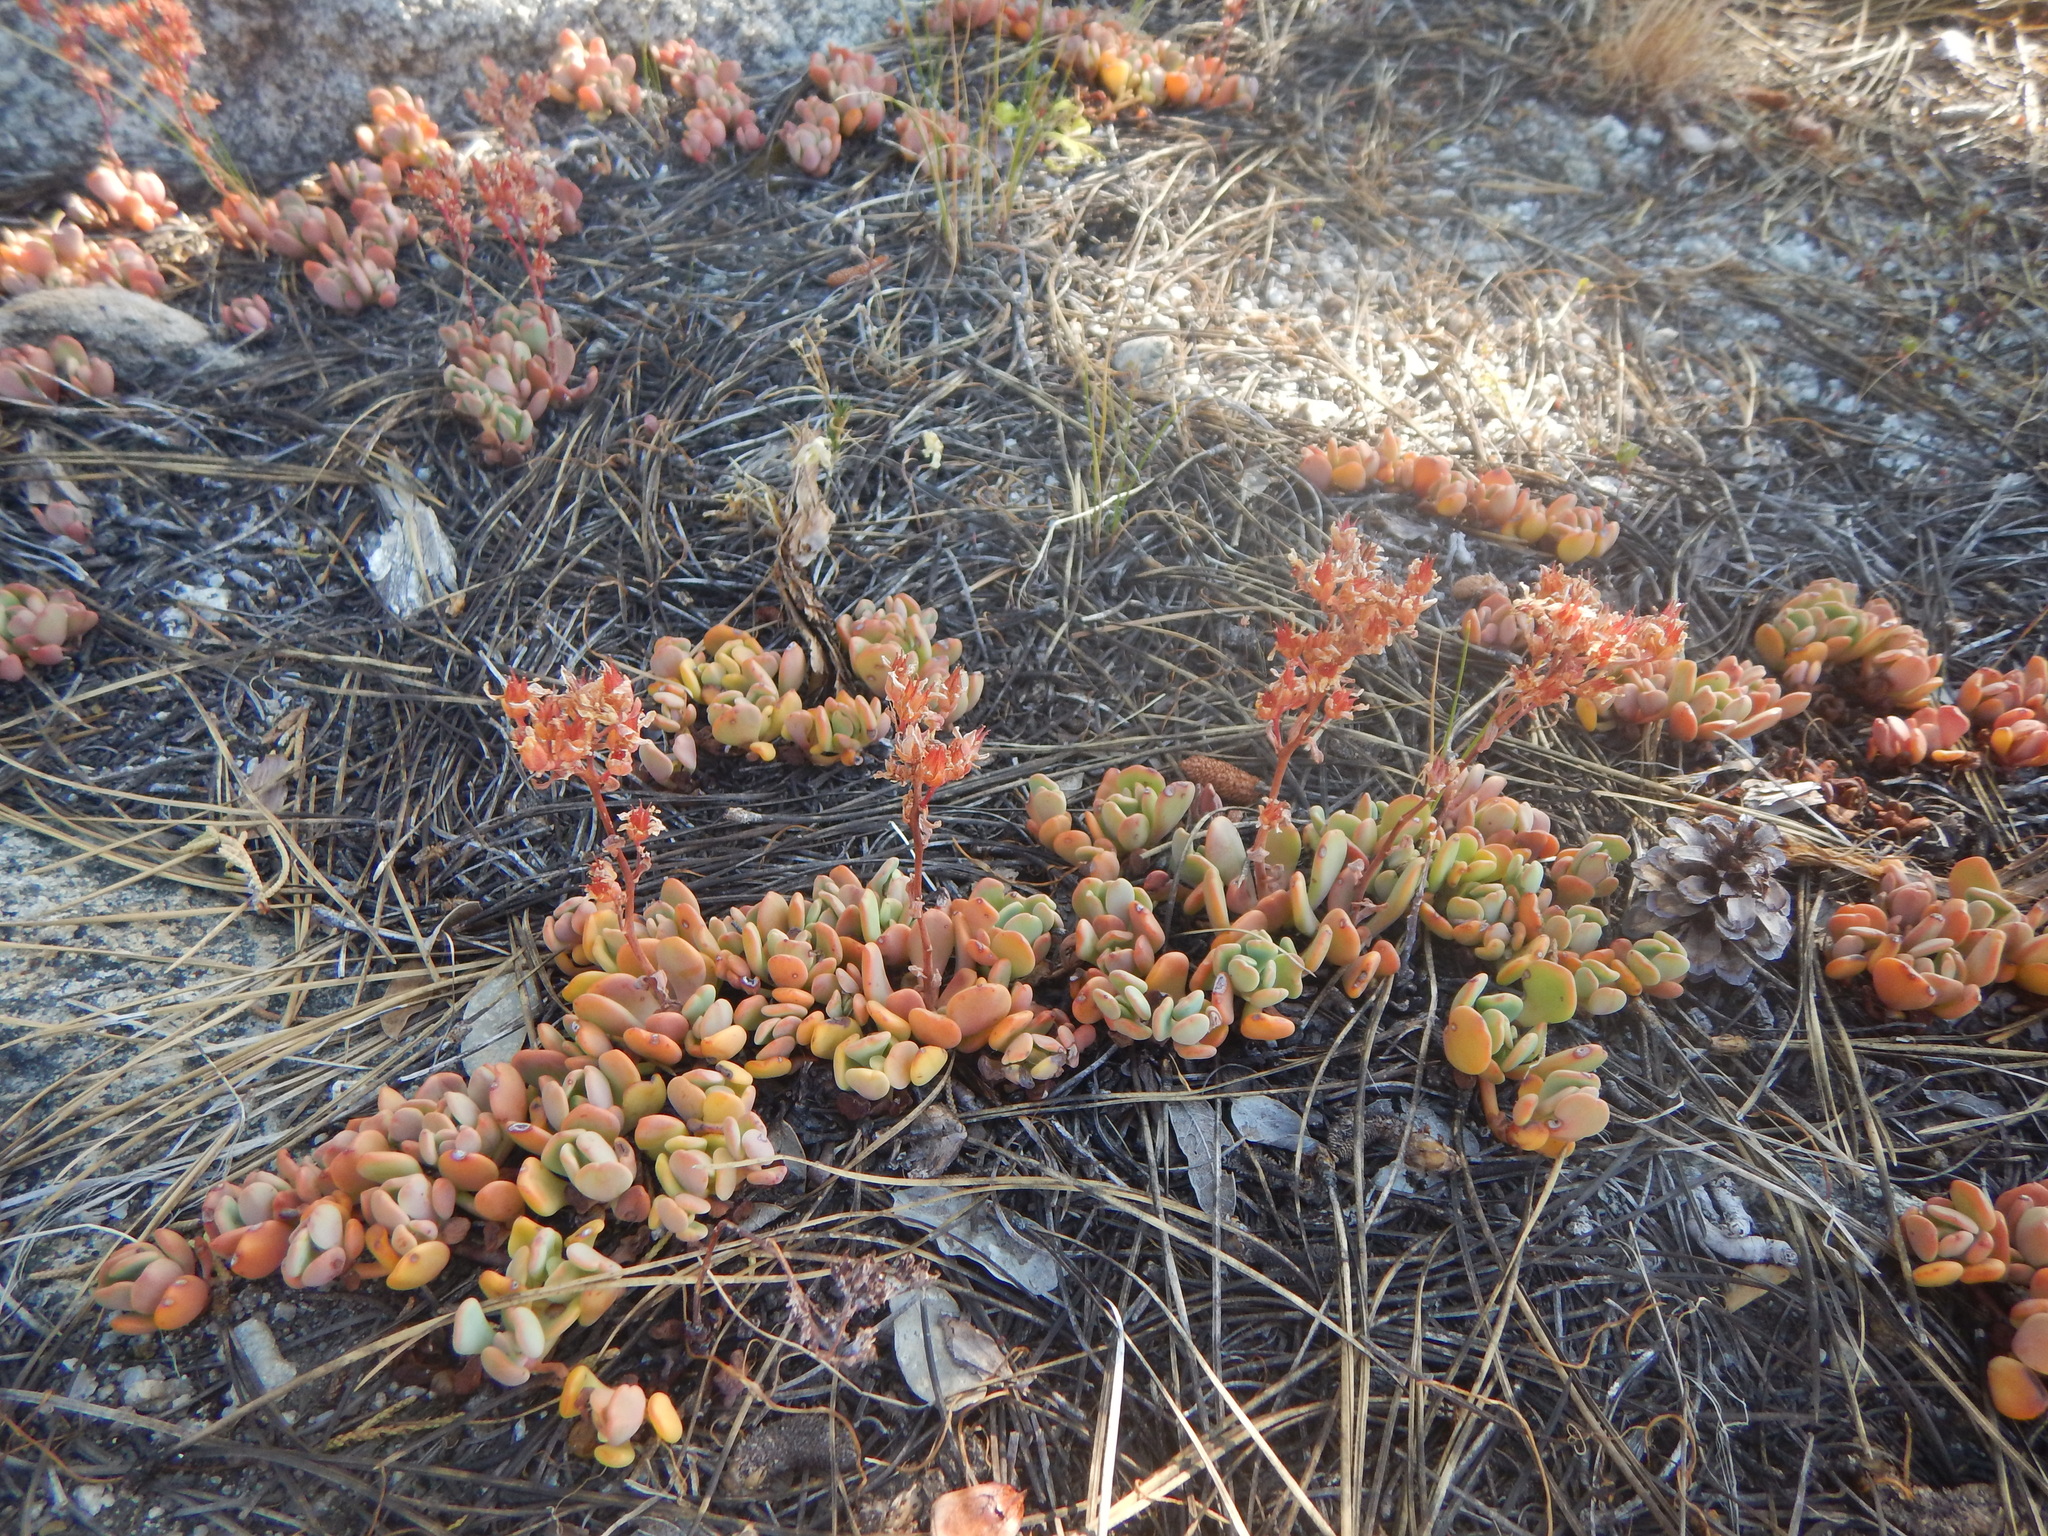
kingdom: Plantae
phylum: Tracheophyta
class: Magnoliopsida
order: Saxifragales
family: Crassulaceae
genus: Sedum
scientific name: Sedum obtusatum
